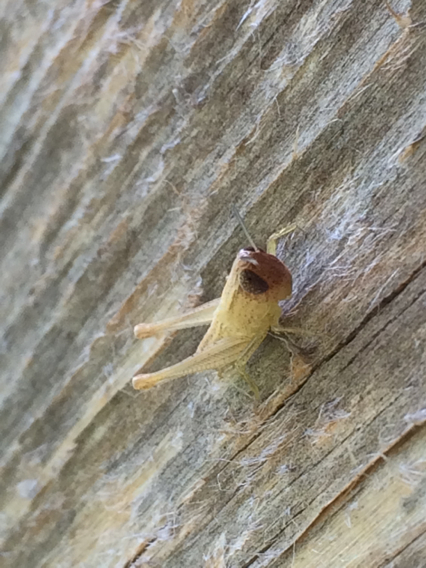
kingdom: Animalia
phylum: Arthropoda
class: Insecta
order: Orthoptera
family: Acrididae
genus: Amblytropidia
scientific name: Amblytropidia mysteca
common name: Brown winter grasshopper
